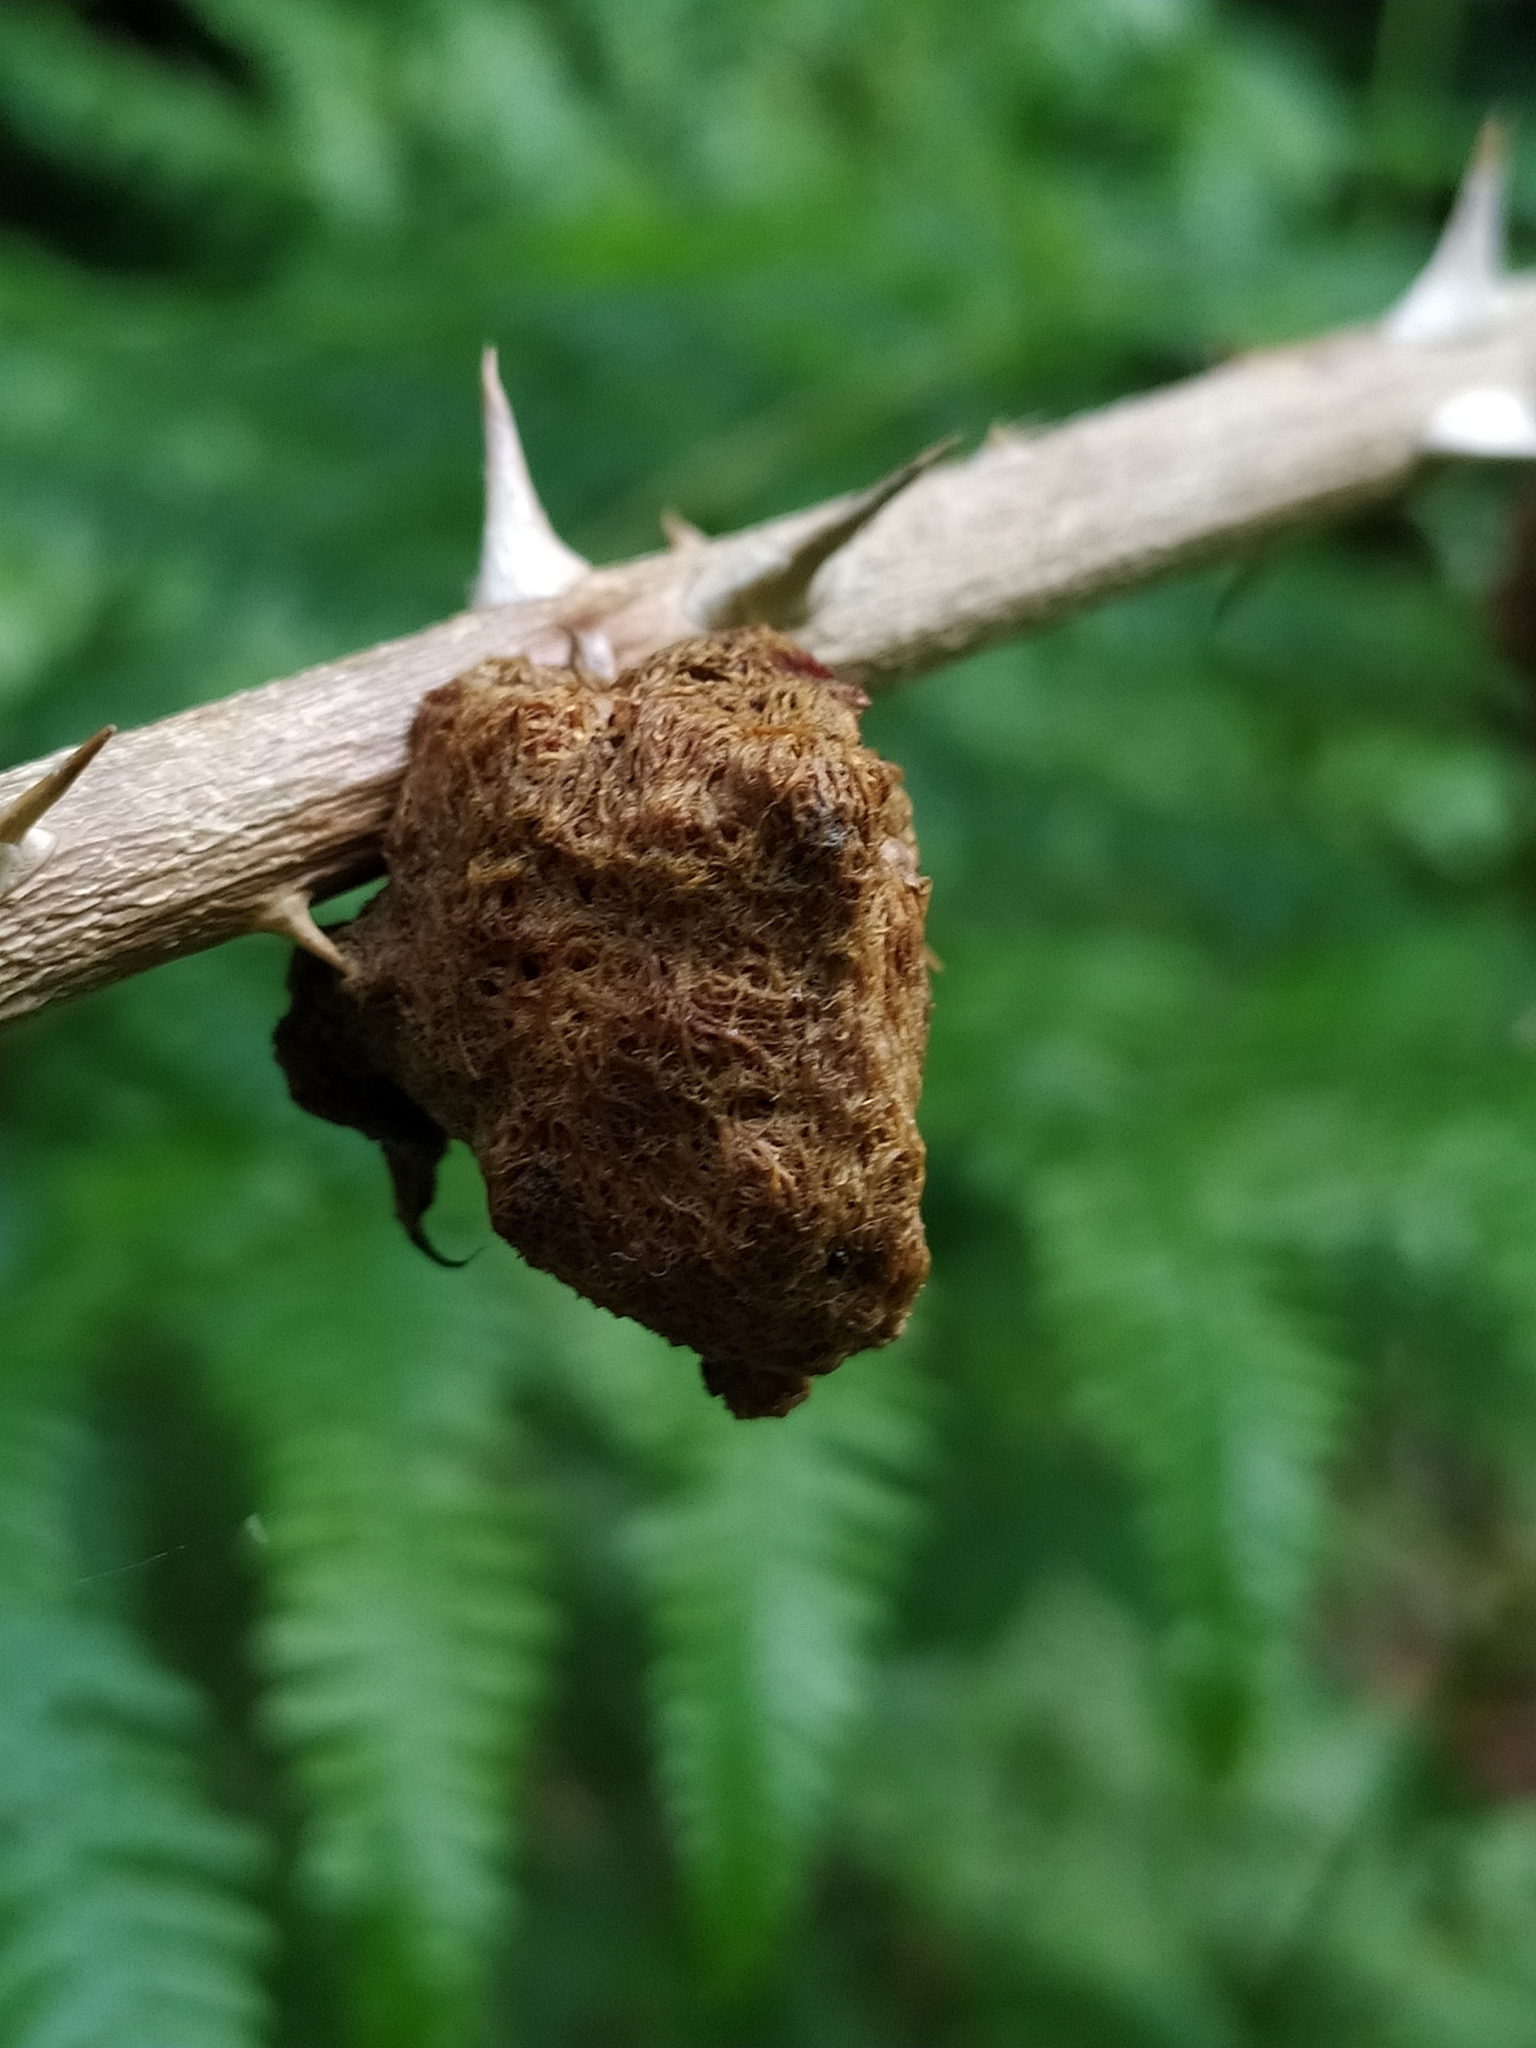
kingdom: Animalia
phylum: Arthropoda
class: Insecta
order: Hymenoptera
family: Cynipidae
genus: Diplolepis
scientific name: Diplolepis rosae
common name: Bedeguar gall
